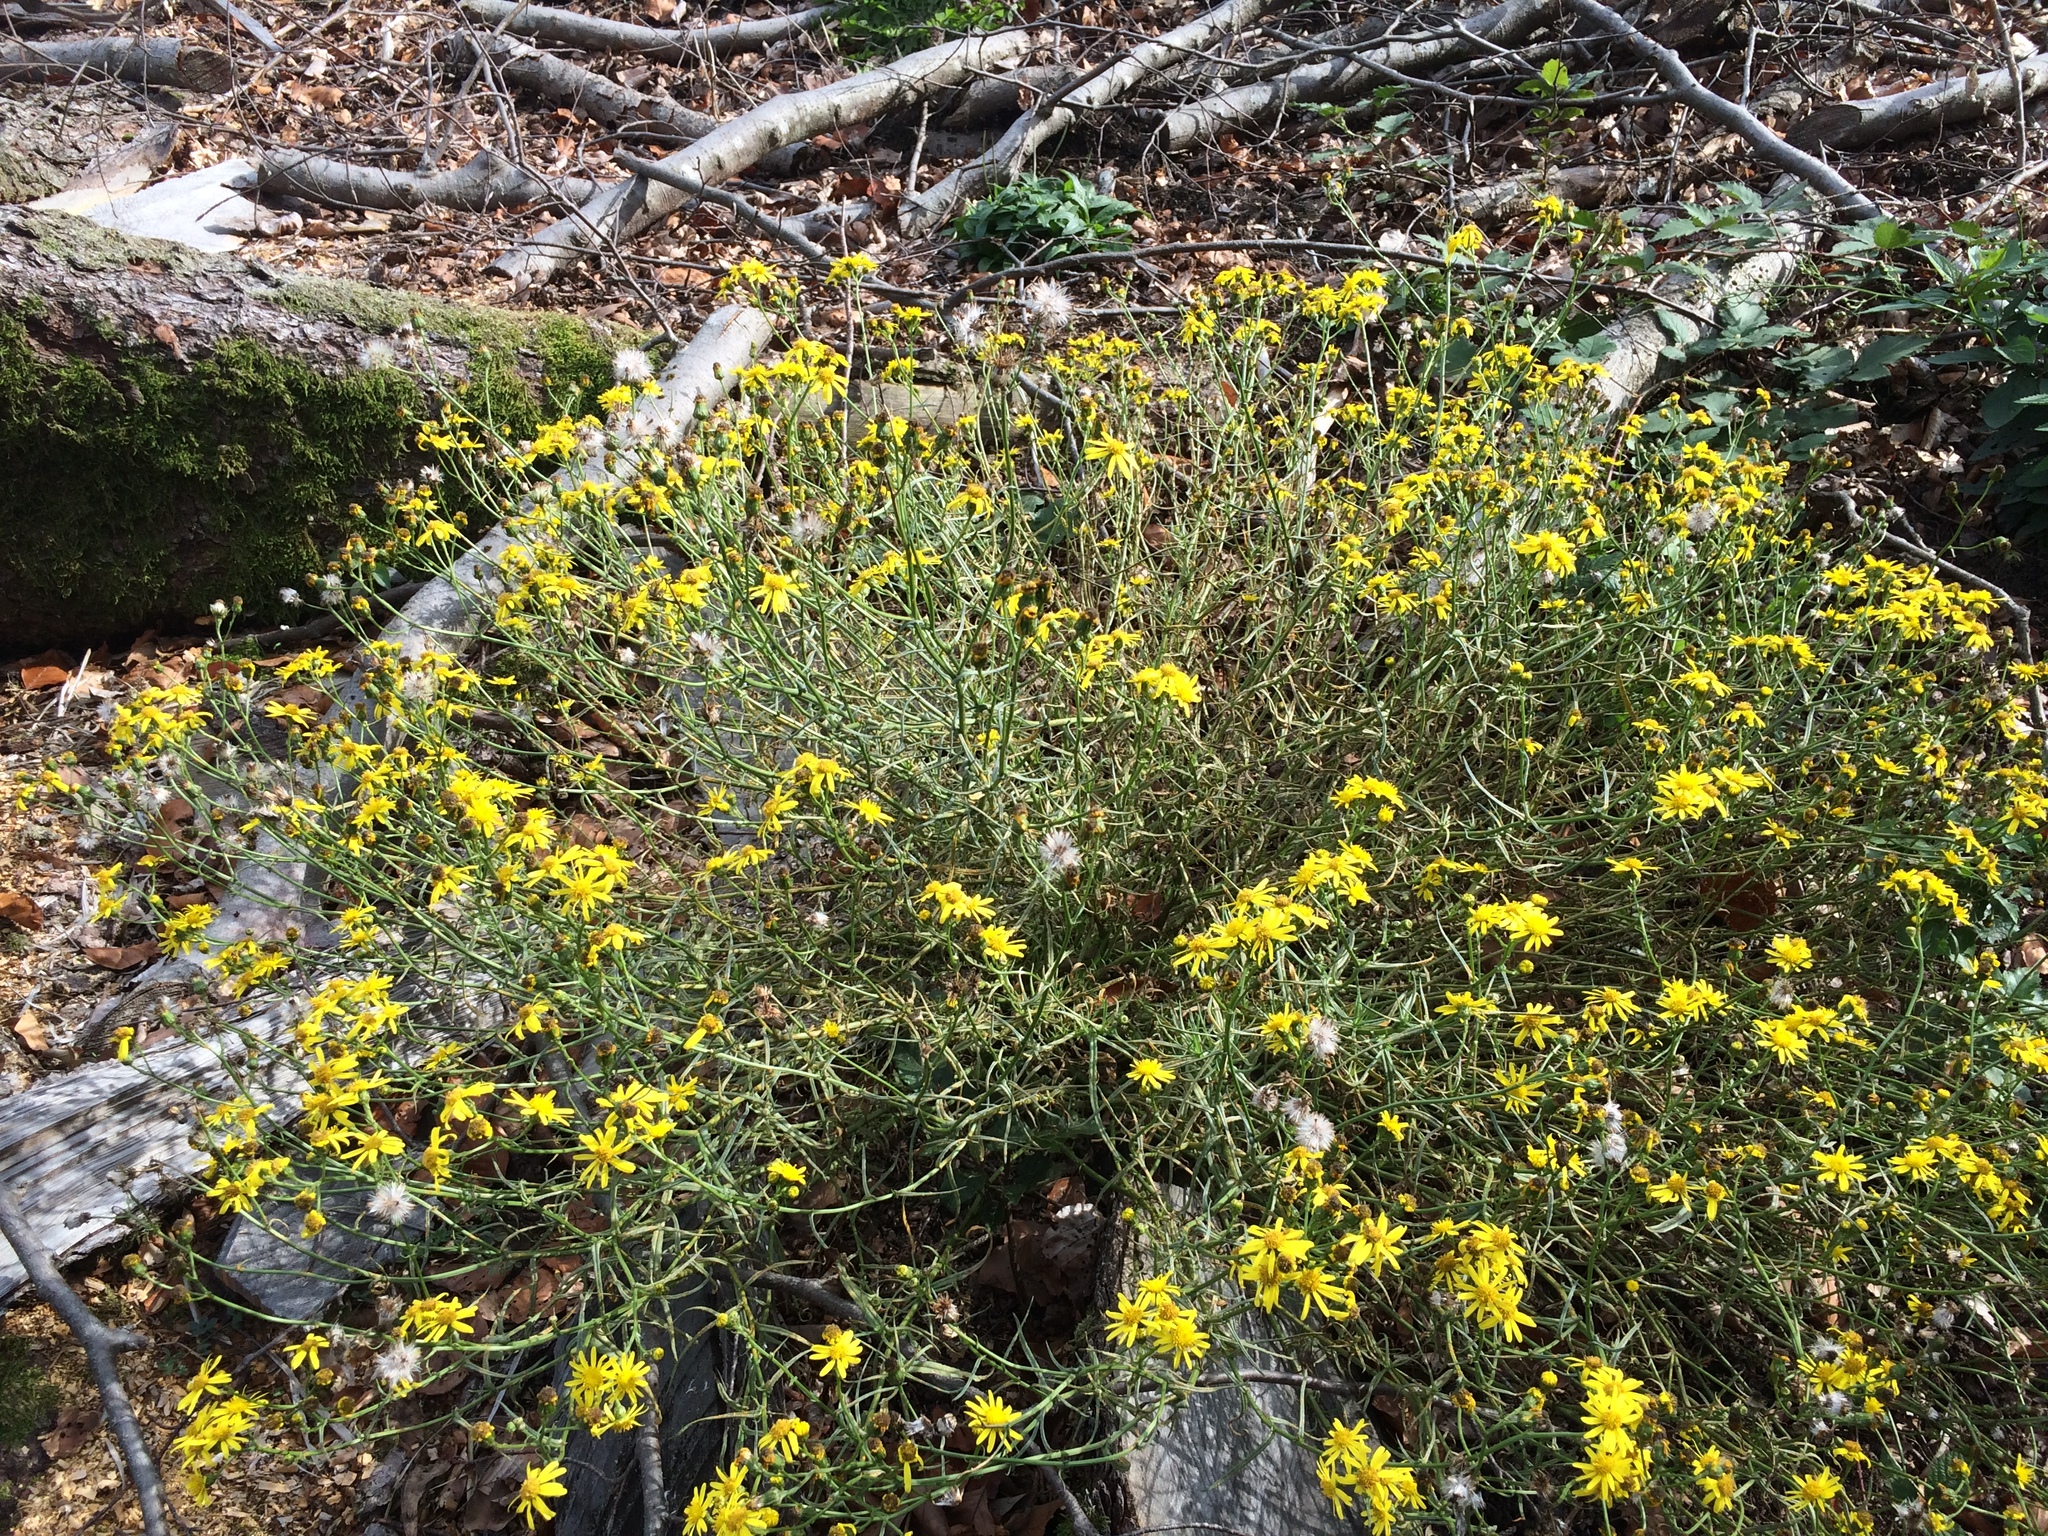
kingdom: Plantae
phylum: Tracheophyta
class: Magnoliopsida
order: Asterales
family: Asteraceae
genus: Senecio
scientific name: Senecio inaequidens
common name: Narrow-leaved ragwort
